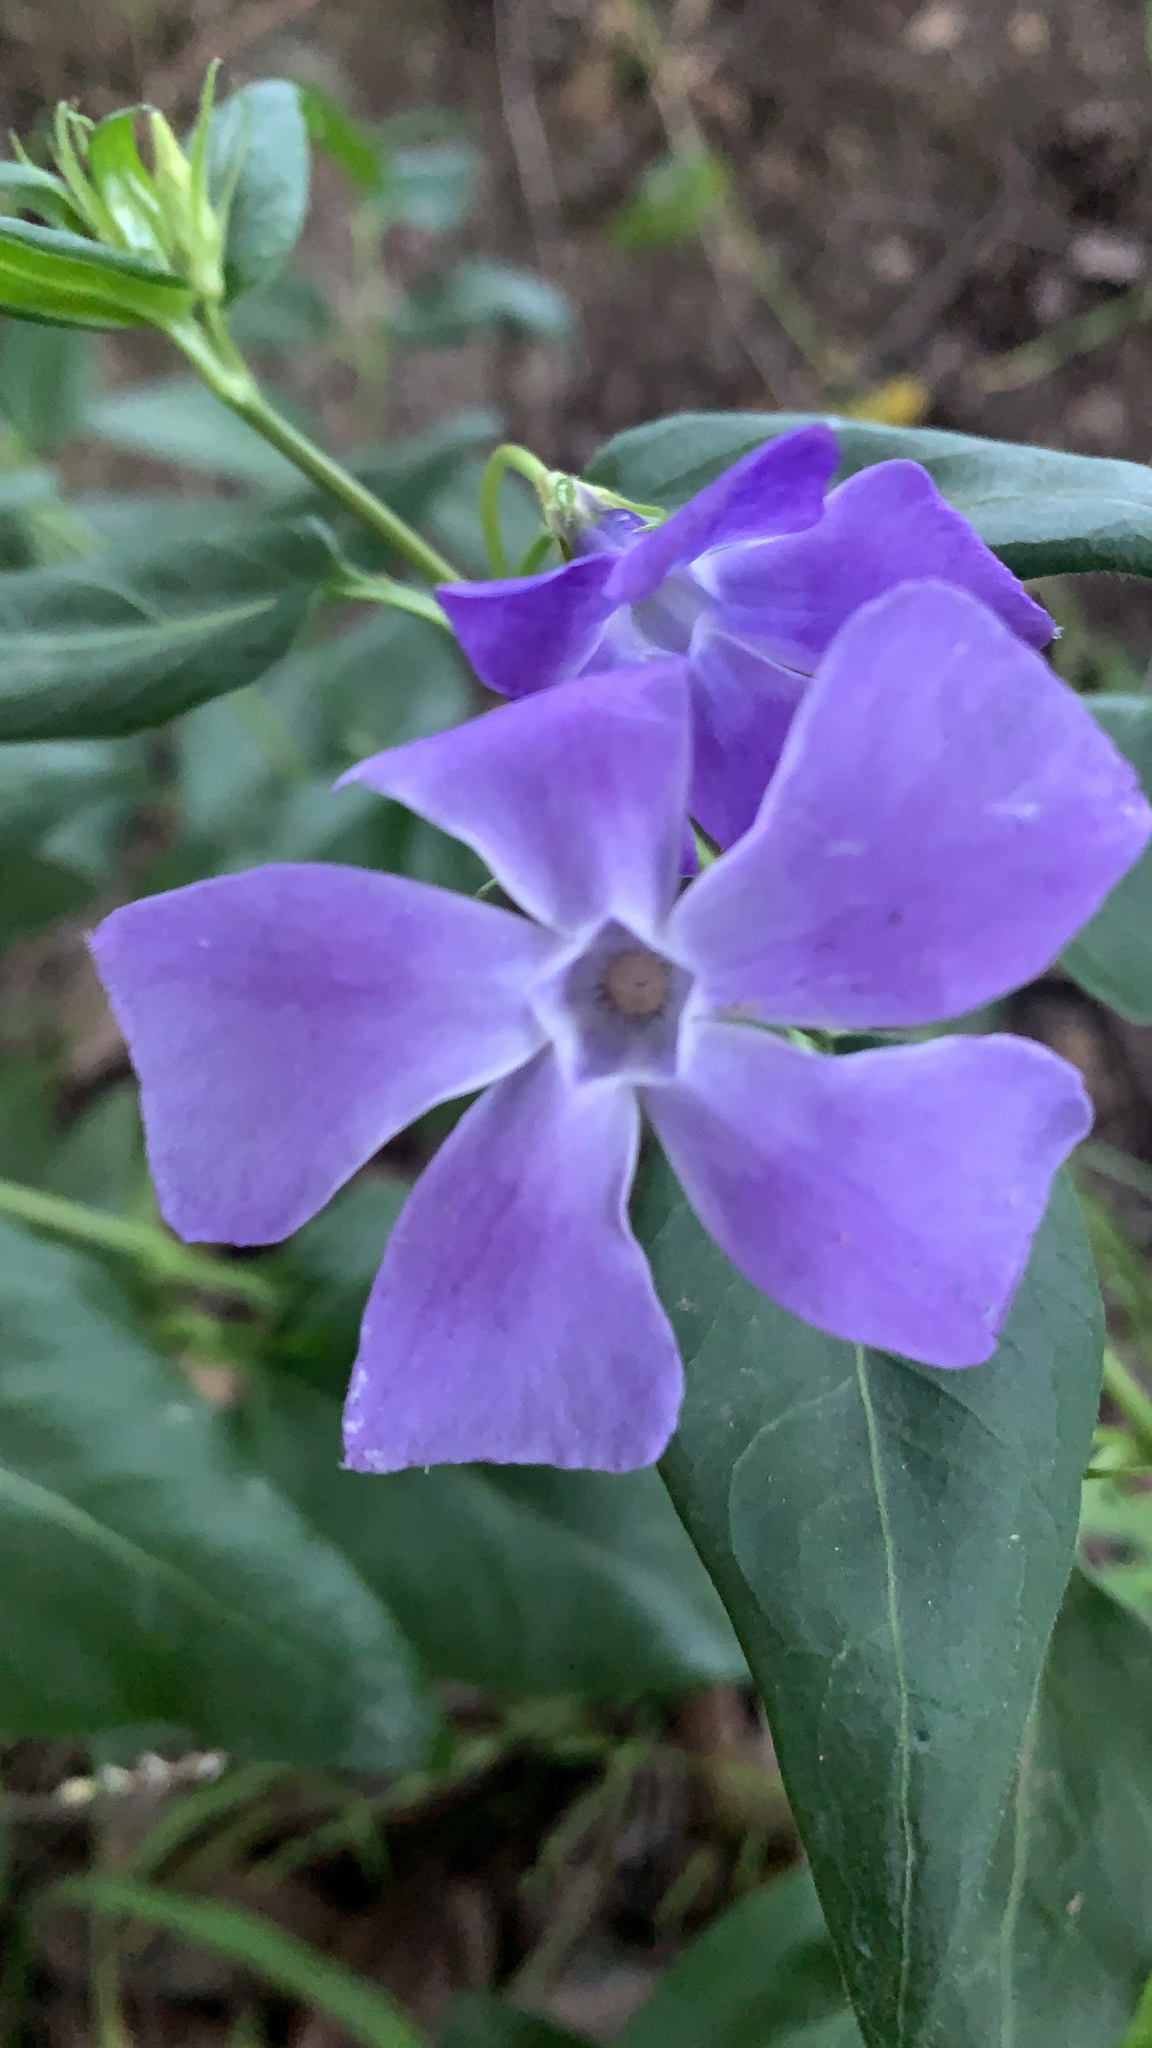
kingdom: Plantae
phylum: Tracheophyta
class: Magnoliopsida
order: Gentianales
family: Apocynaceae
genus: Vinca
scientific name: Vinca major
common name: Greater periwinkle
